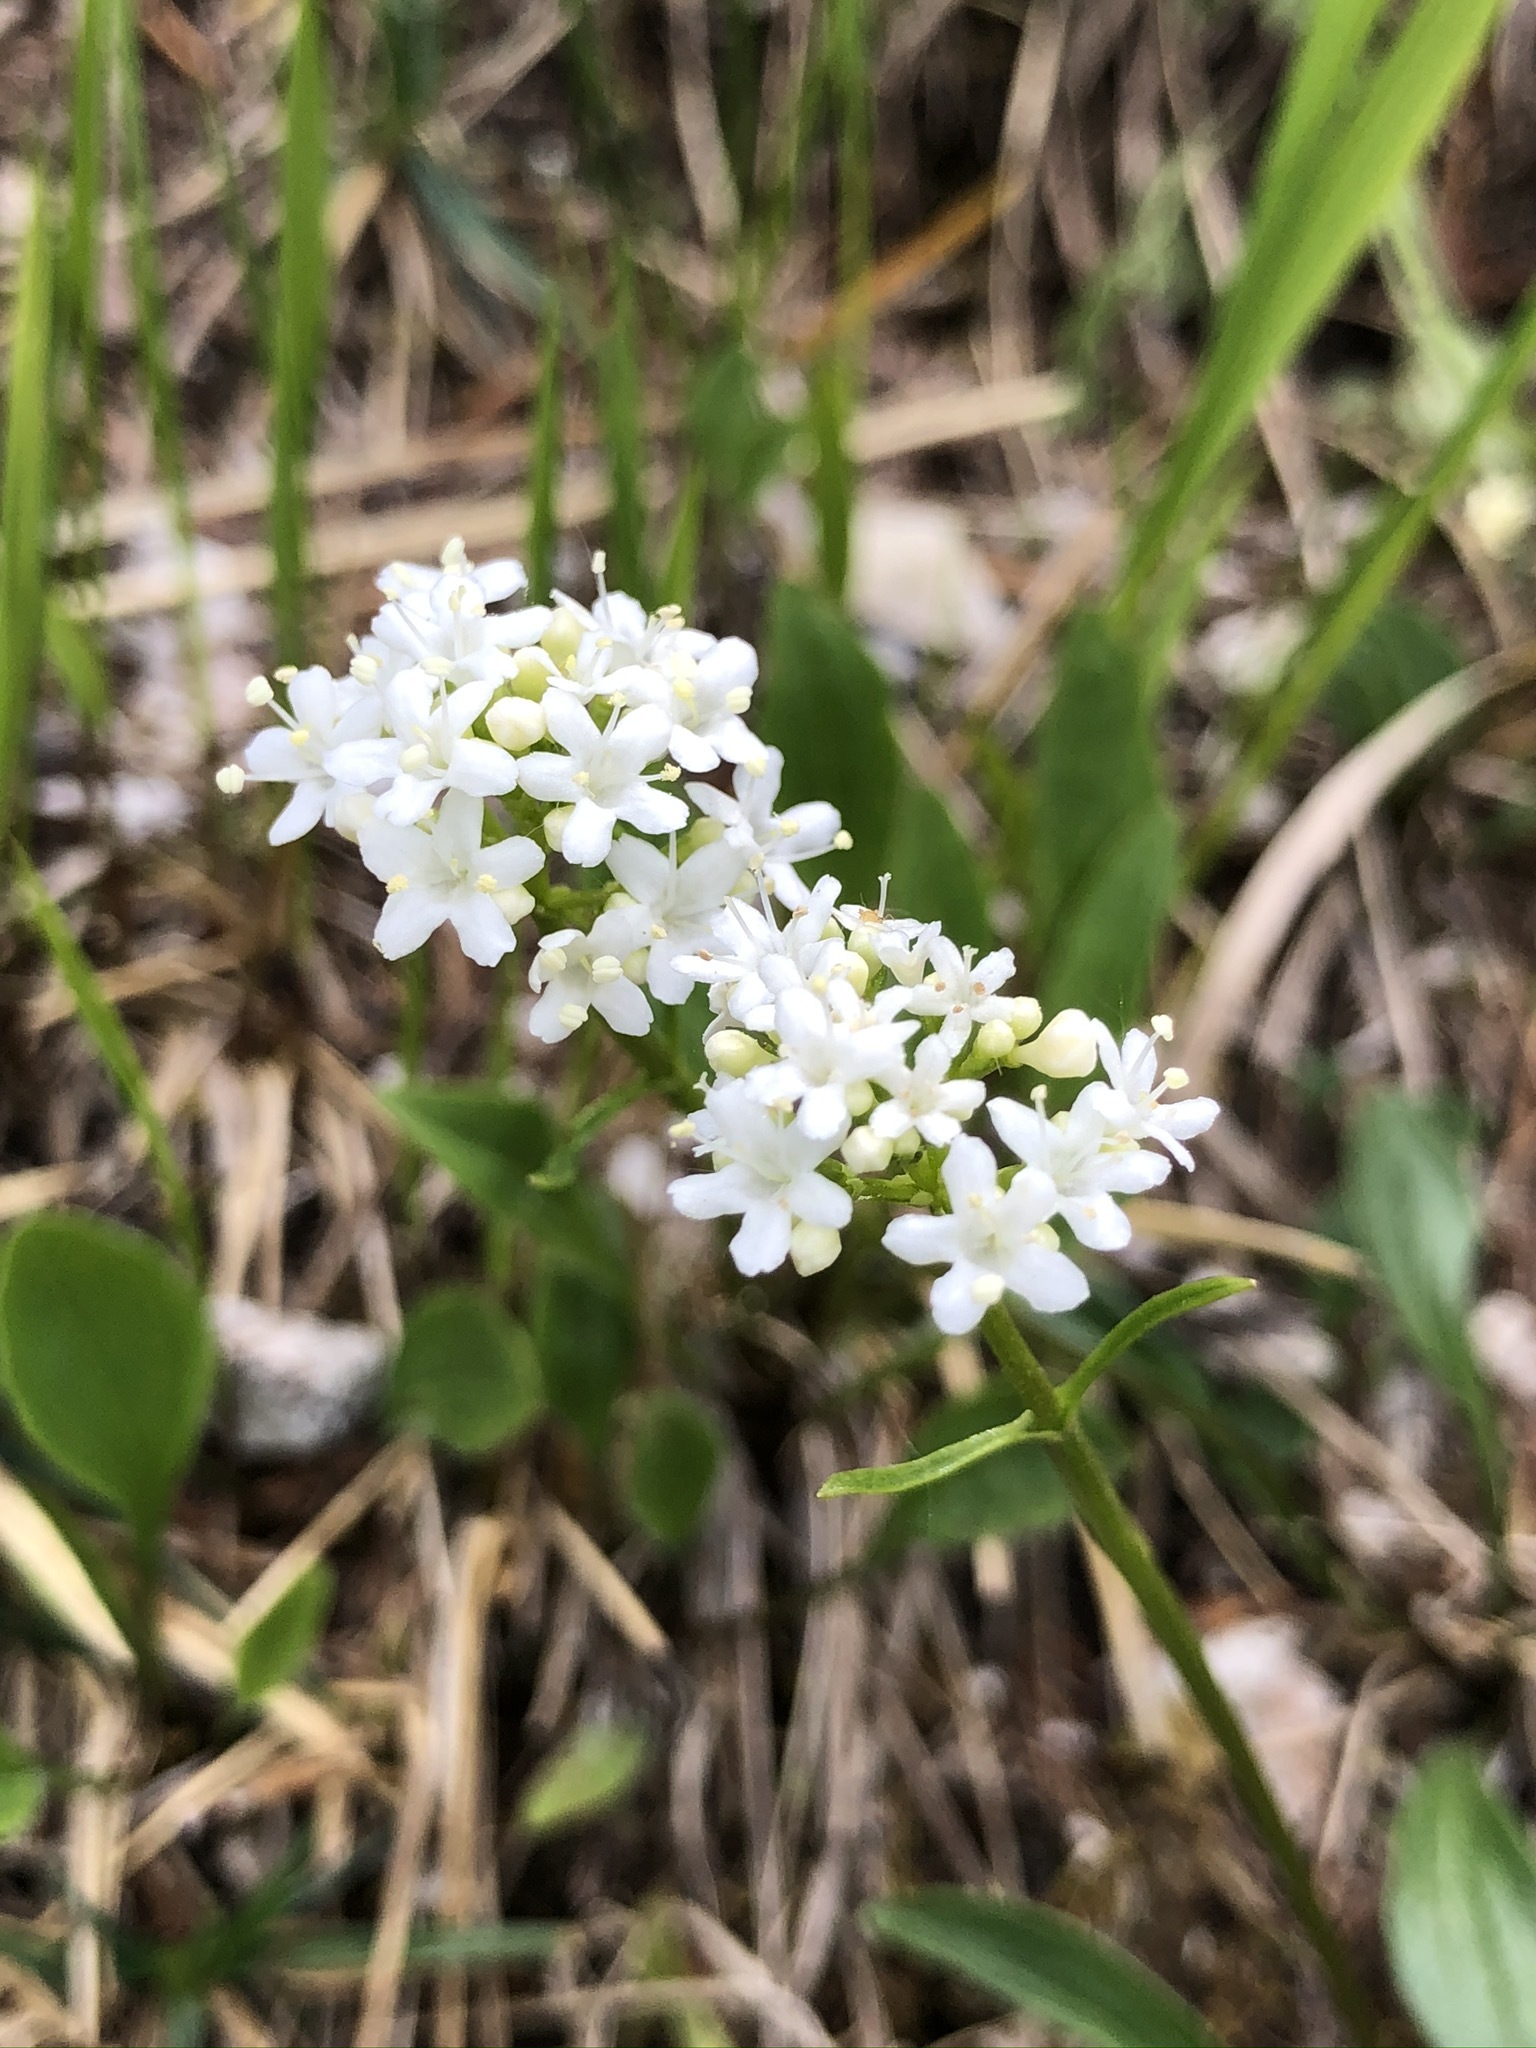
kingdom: Plantae
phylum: Tracheophyta
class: Magnoliopsida
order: Dipsacales
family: Caprifoliaceae
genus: Valeriana
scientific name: Valeriana saxatilis
